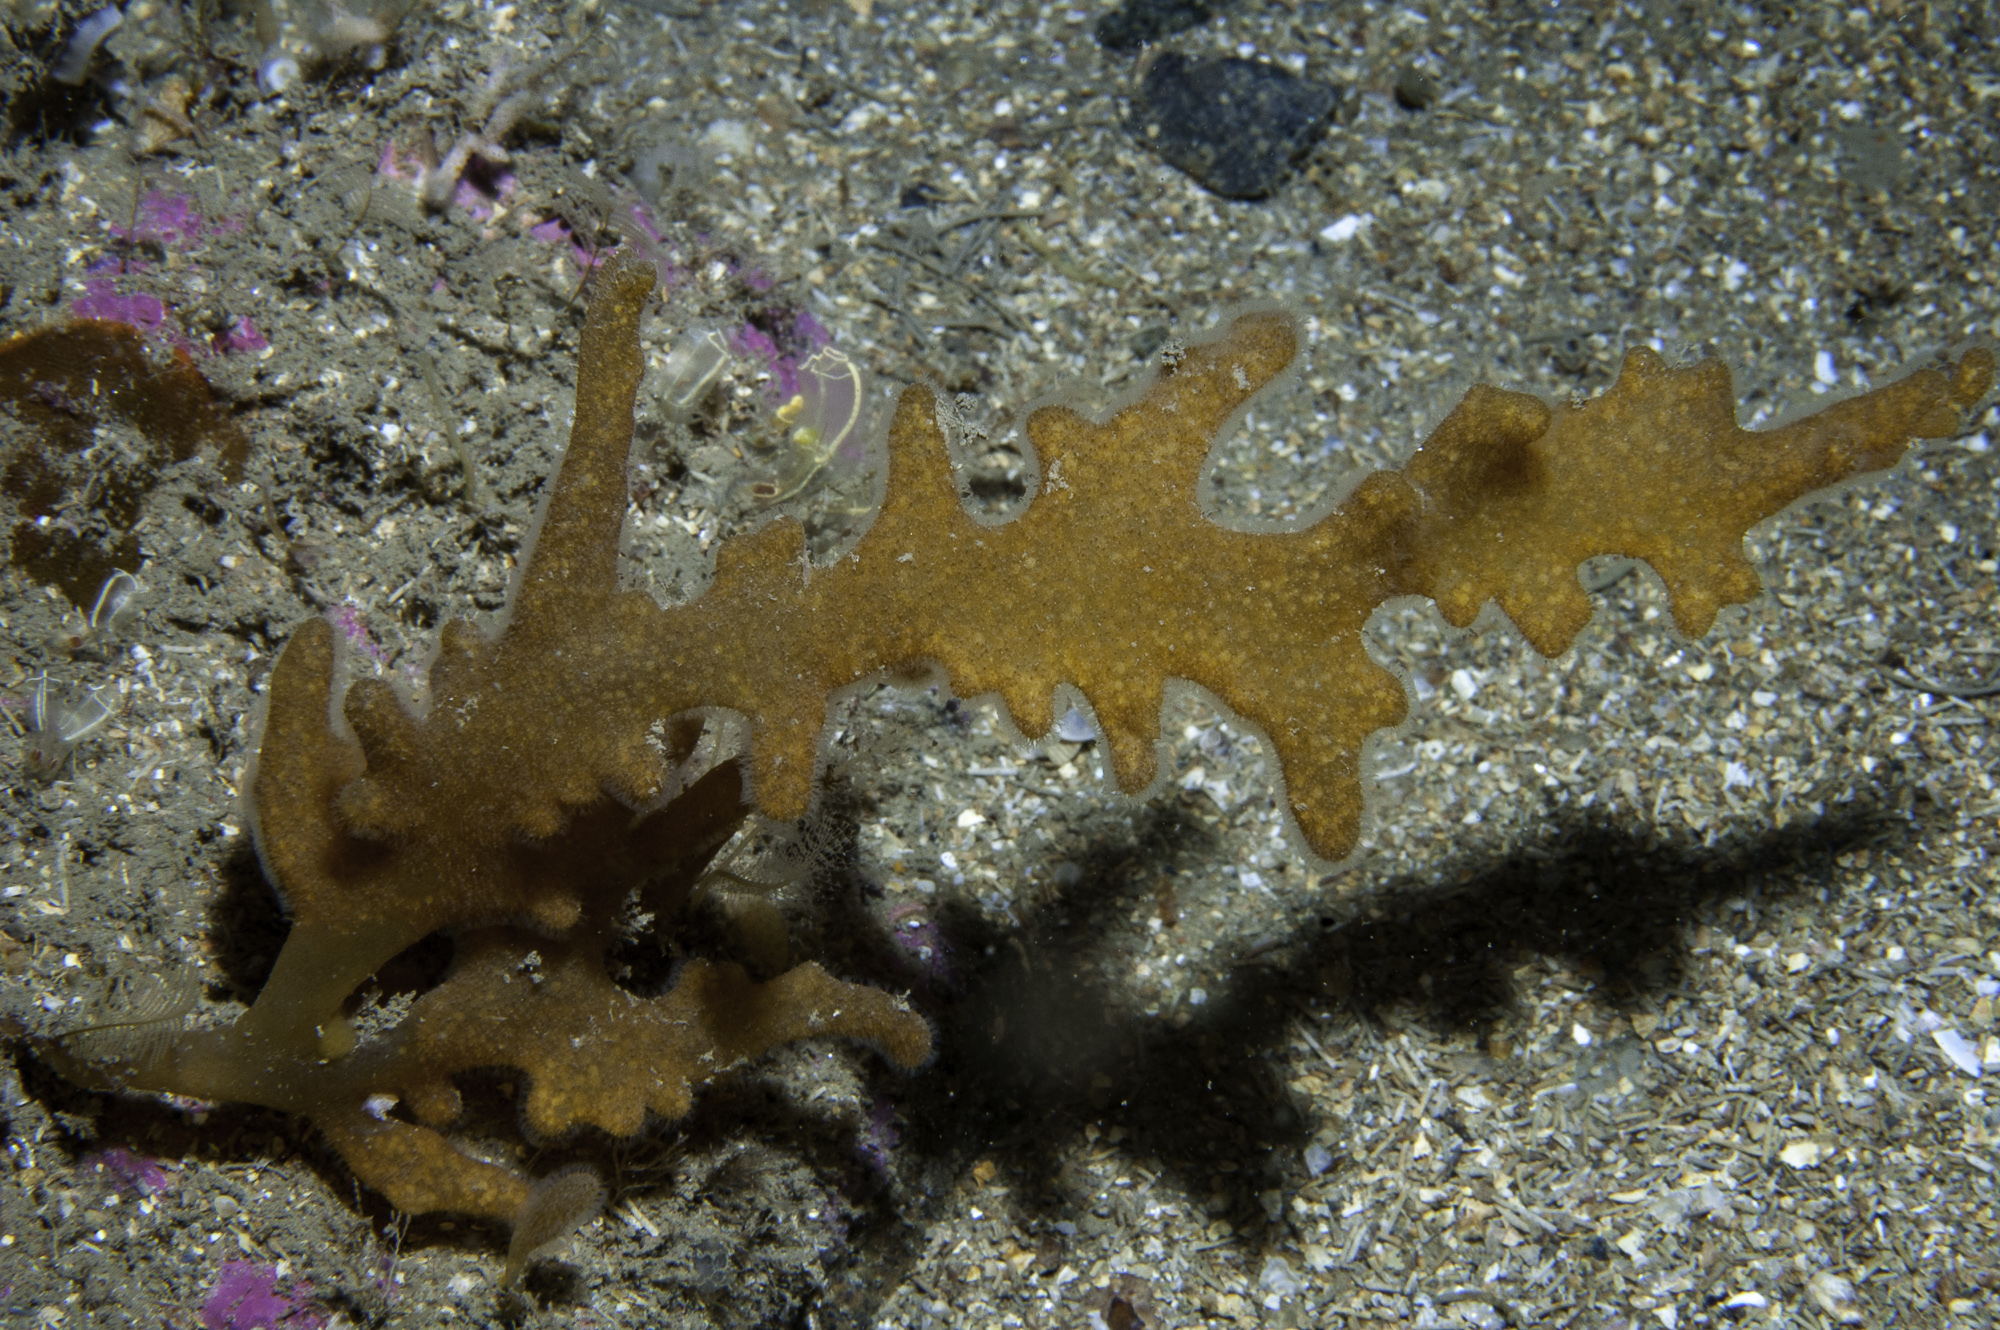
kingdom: Animalia
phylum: Bryozoa
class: Gymnolaemata
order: Ctenostomatida
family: Alcyonidiidae
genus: Alcyonidium
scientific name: Alcyonidium diaphanum
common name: Sea chervil
